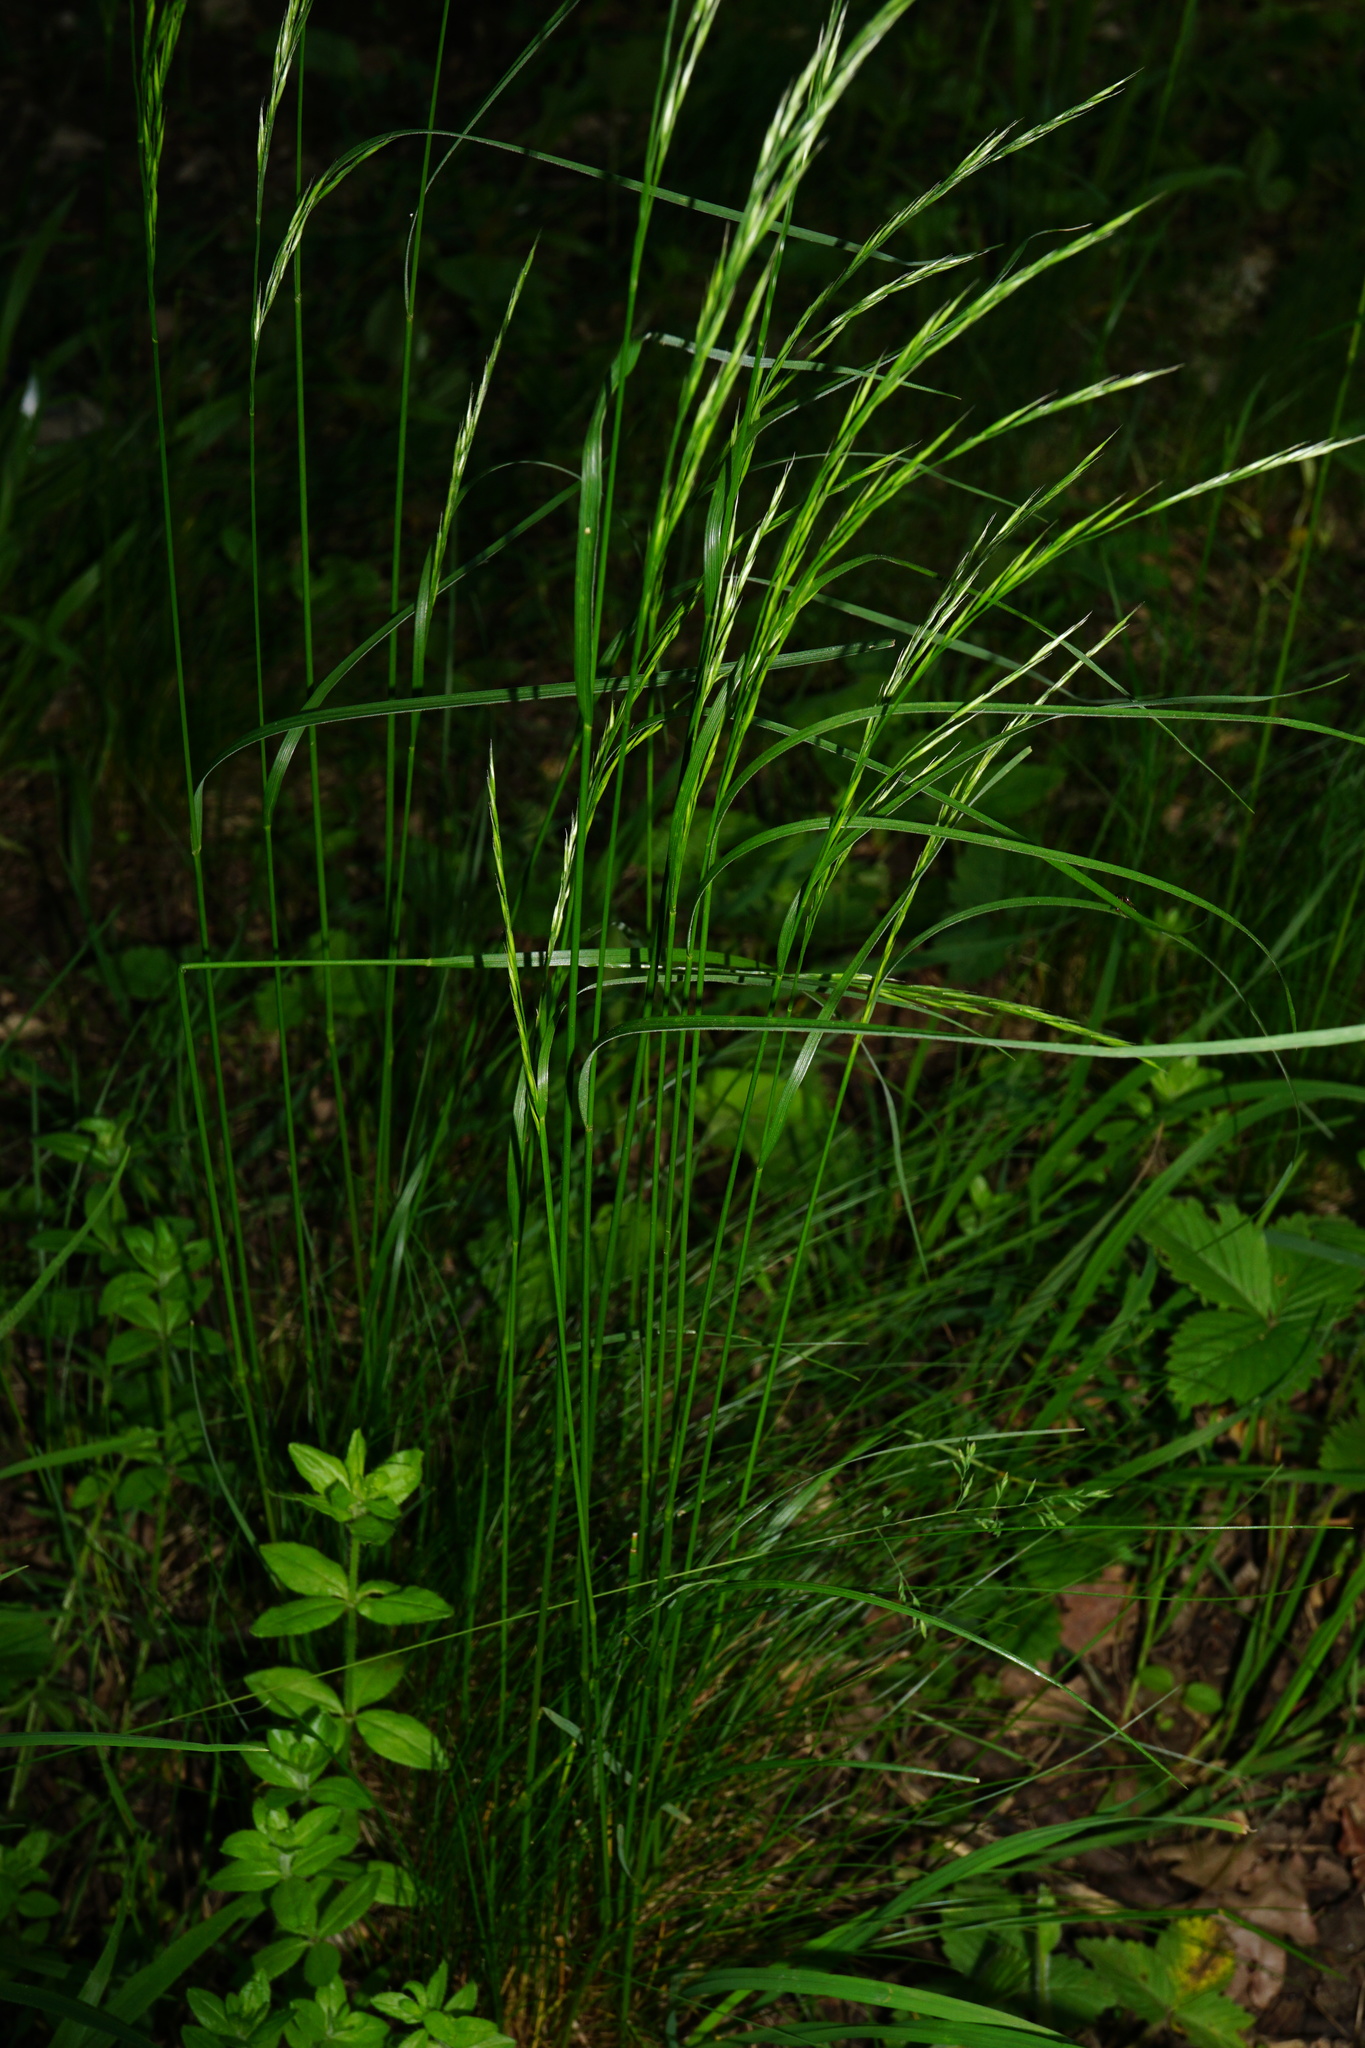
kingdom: Plantae
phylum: Tracheophyta
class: Liliopsida
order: Poales
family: Poaceae
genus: Festuca
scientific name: Festuca heterophylla
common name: Various-leaved fescue
